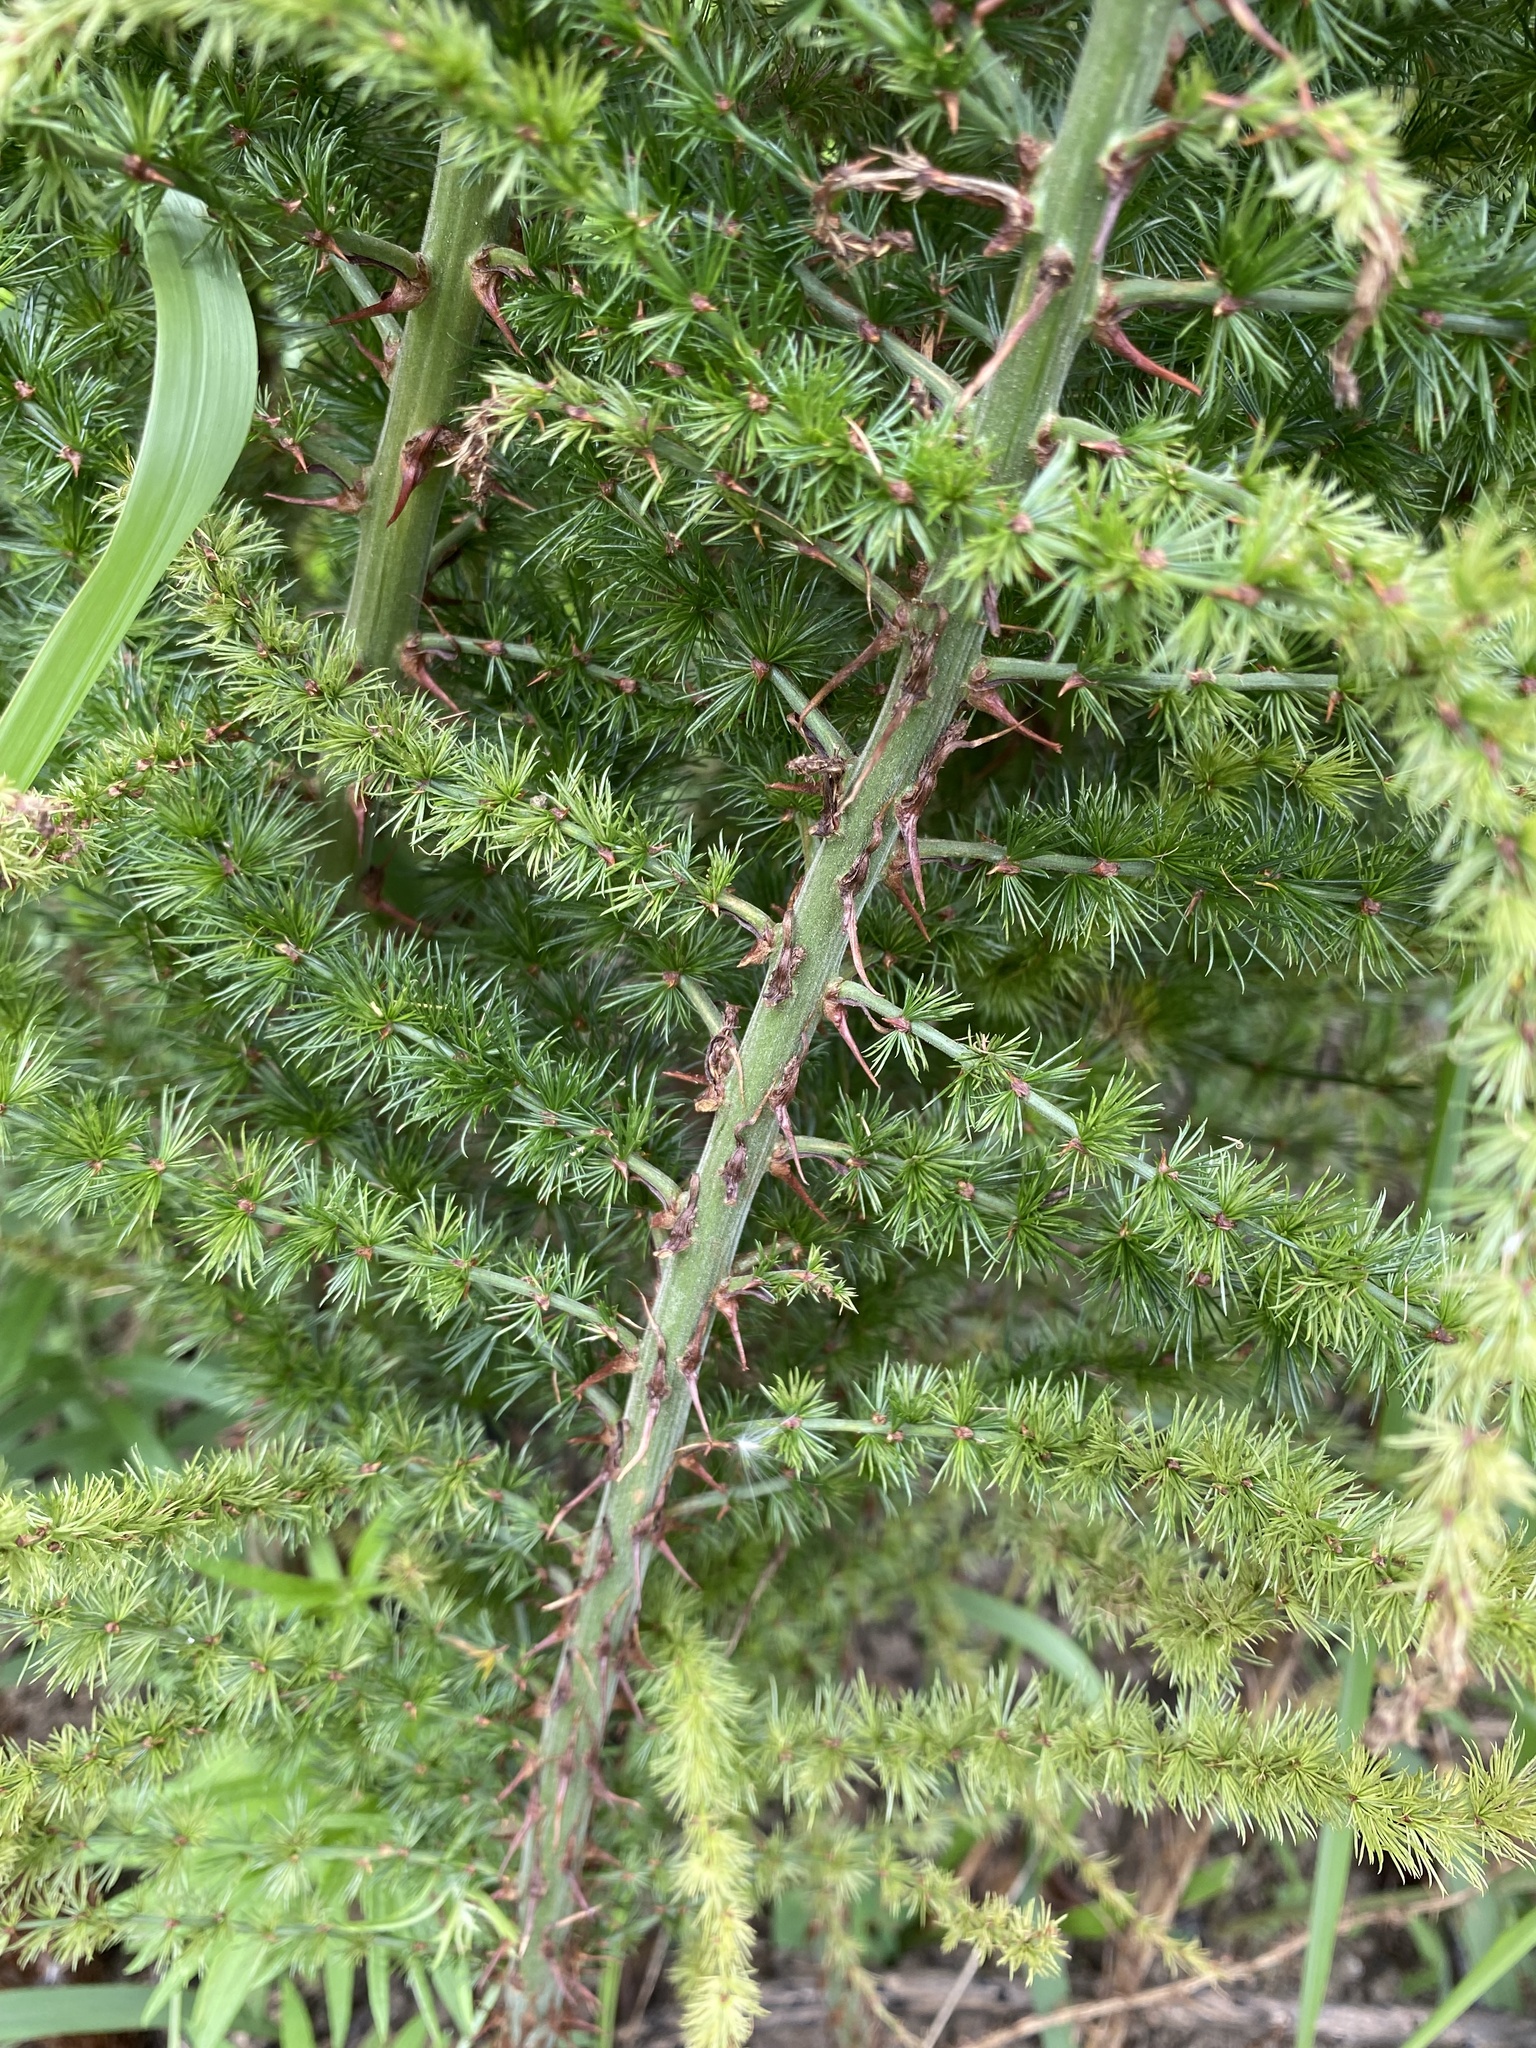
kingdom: Plantae
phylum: Tracheophyta
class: Liliopsida
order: Asparagales
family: Asparagaceae
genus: Asparagus
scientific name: Asparagus africanus
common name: Asparagus-fern
